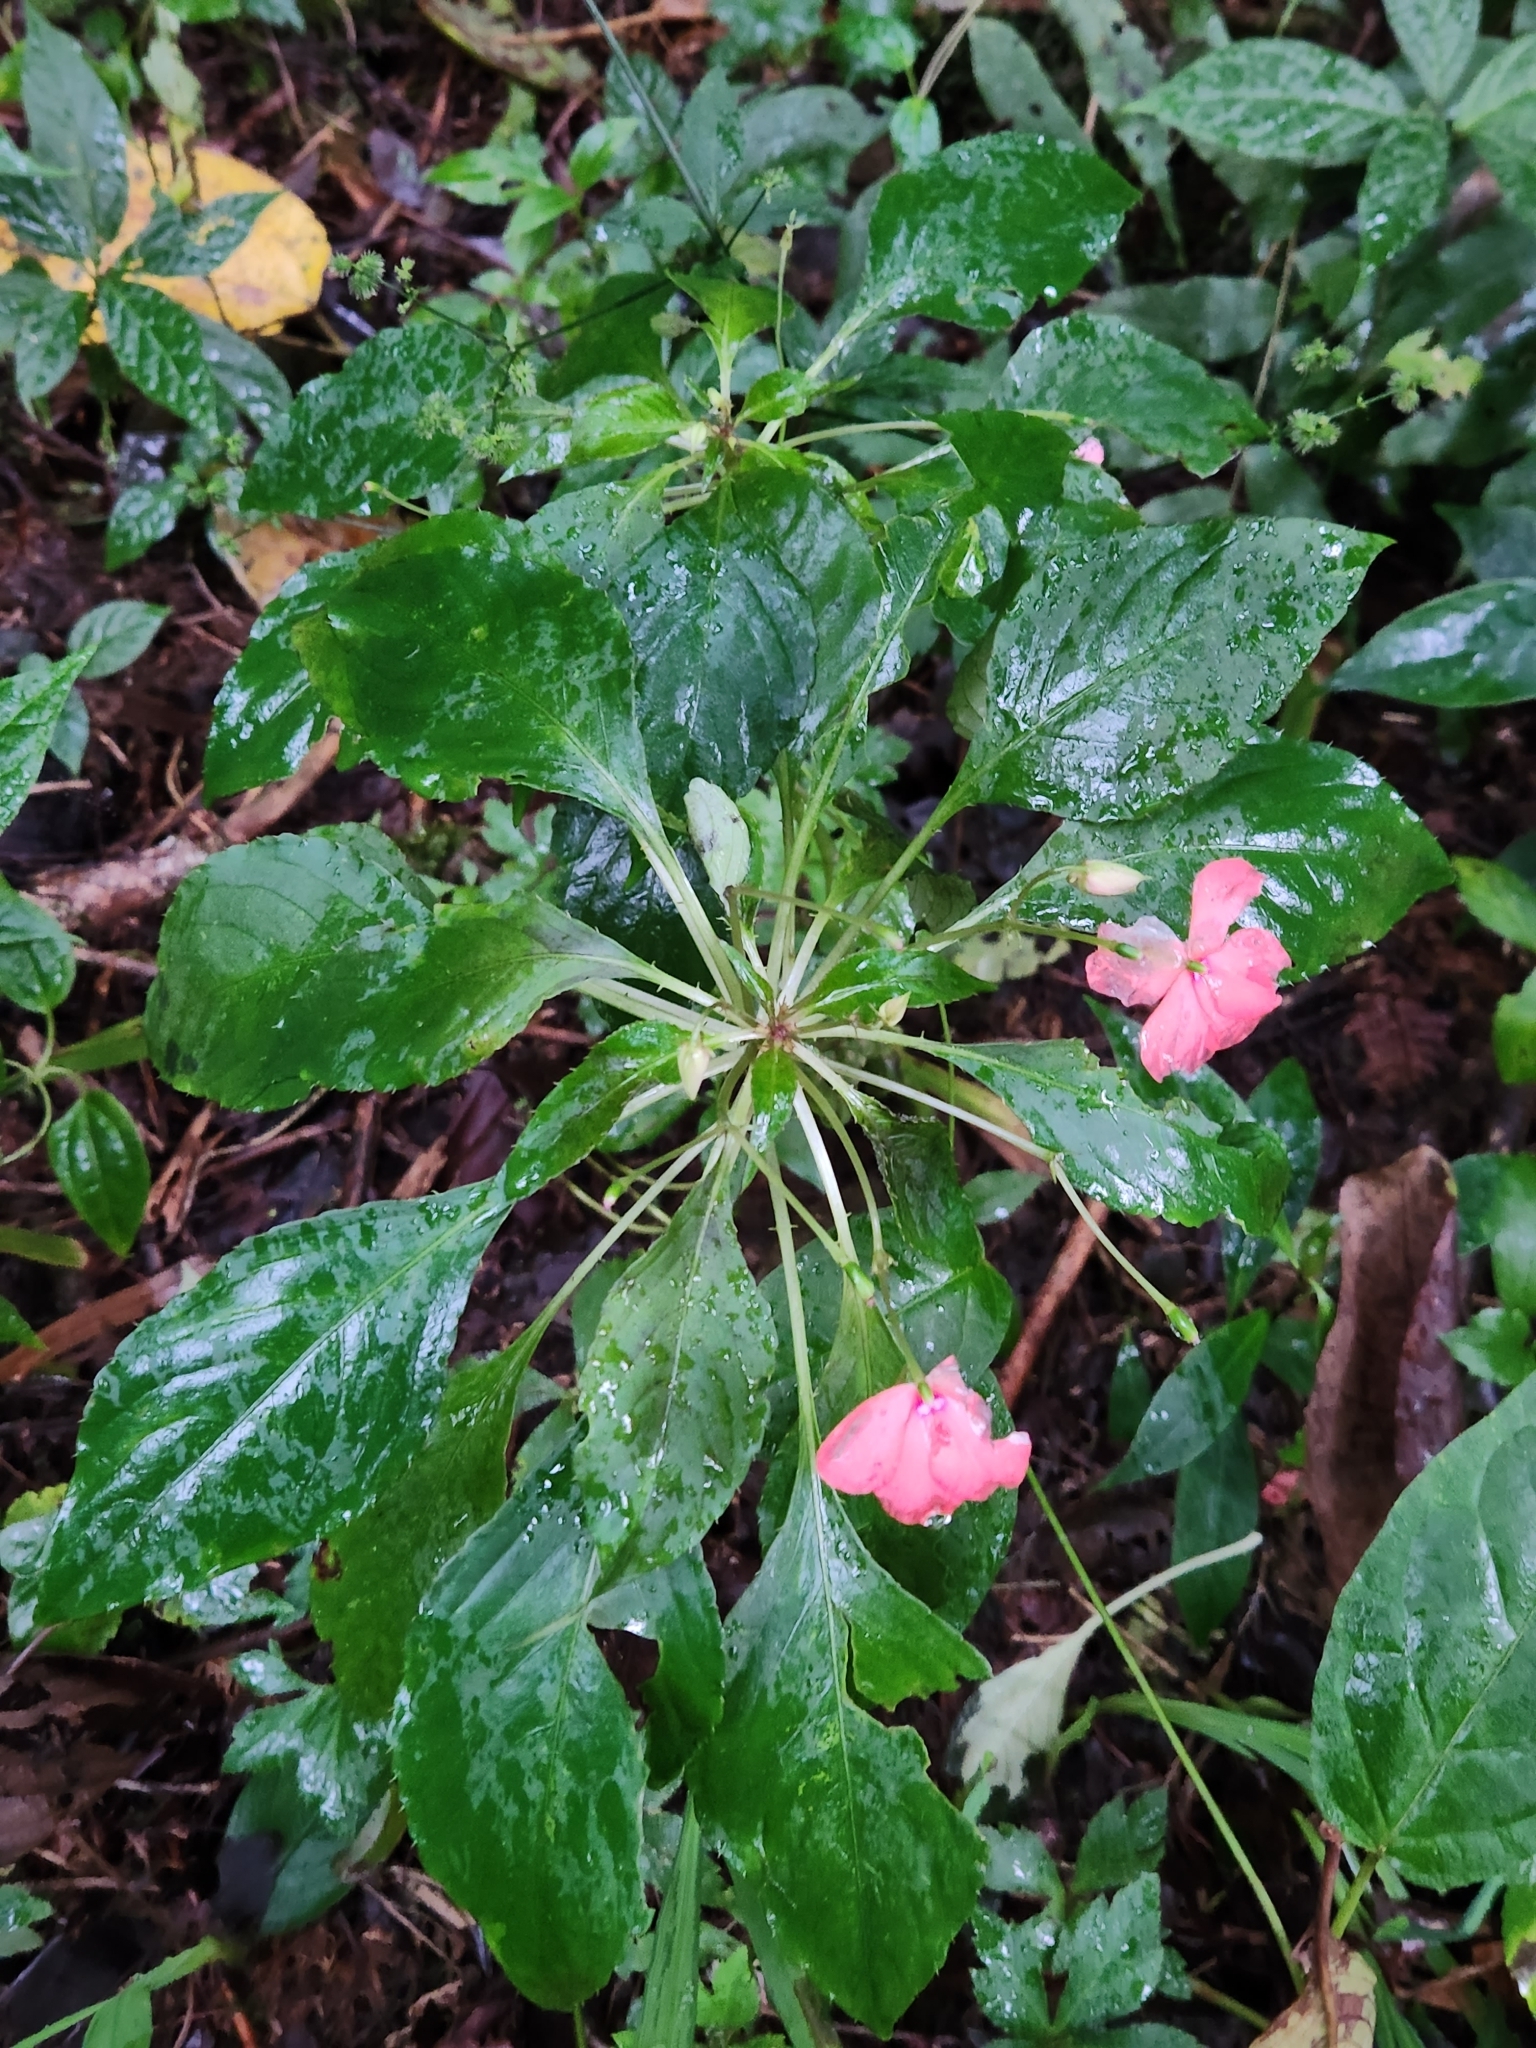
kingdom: Plantae
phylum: Tracheophyta
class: Magnoliopsida
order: Ericales
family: Balsaminaceae
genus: Impatiens
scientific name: Impatiens walleriana
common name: Buzzy lizzy
